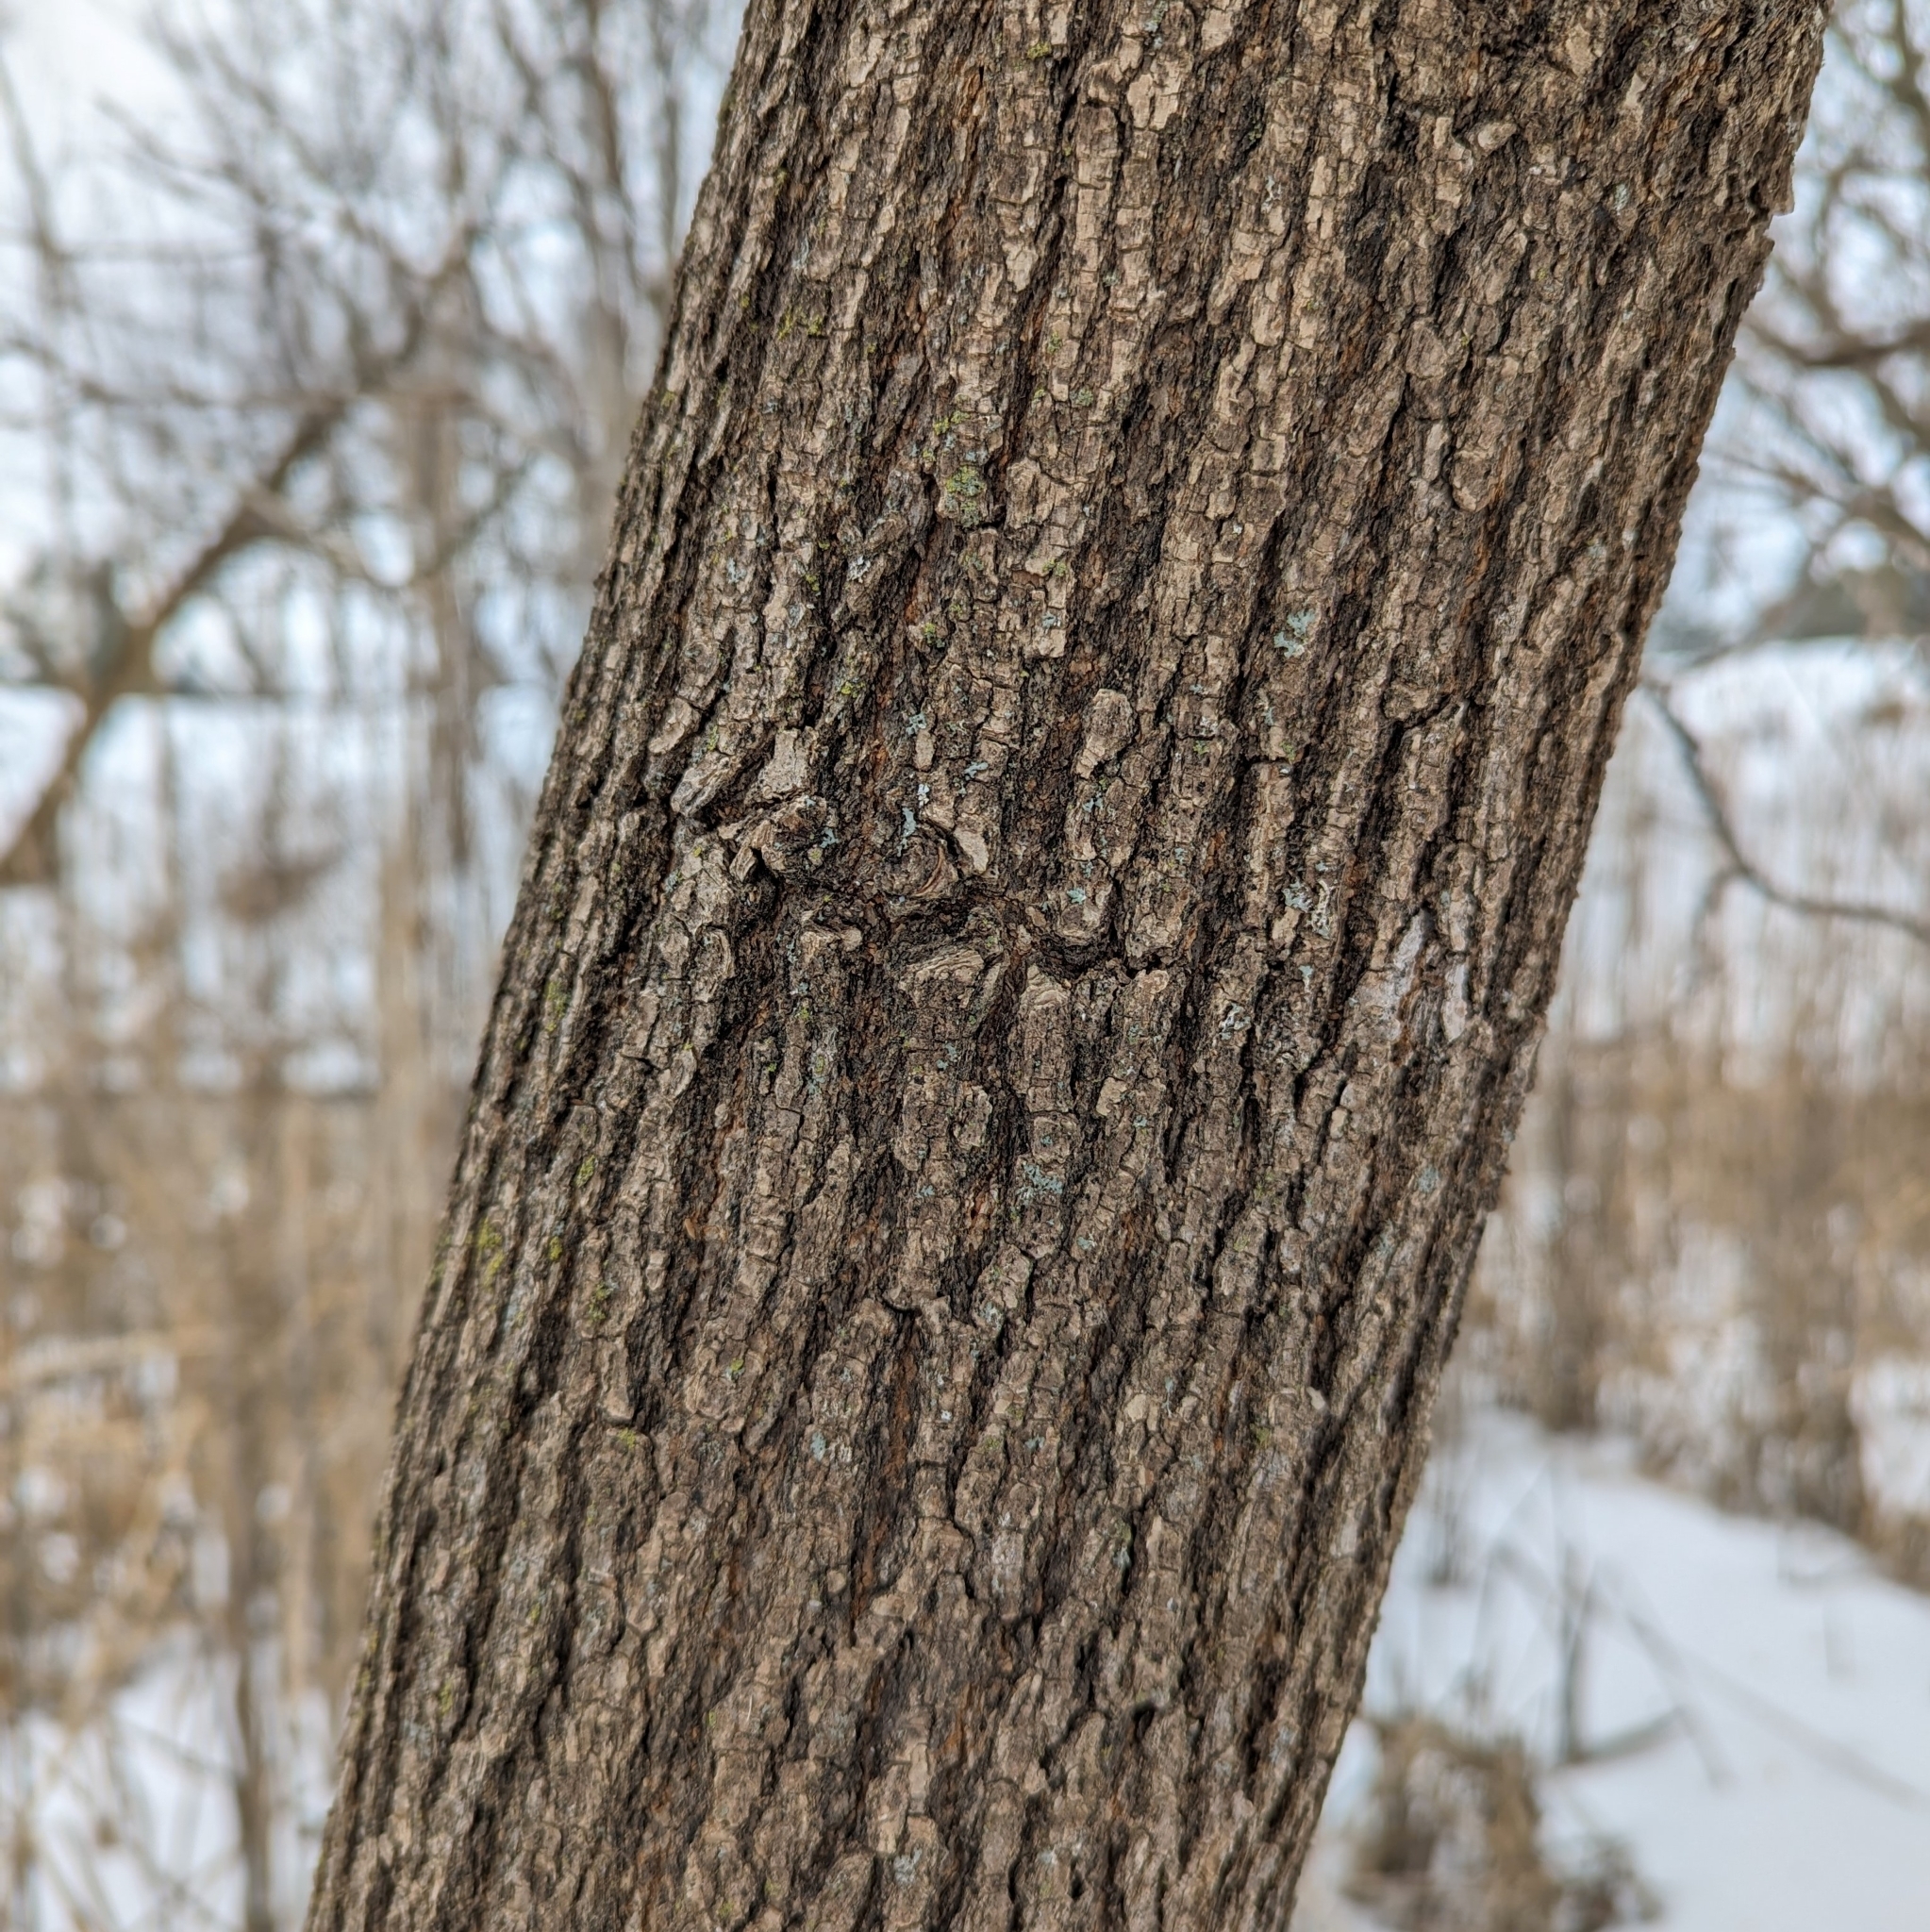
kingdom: Plantae
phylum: Tracheophyta
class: Magnoliopsida
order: Sapindales
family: Sapindaceae
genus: Acer
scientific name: Acer negundo
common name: Ashleaf maple
